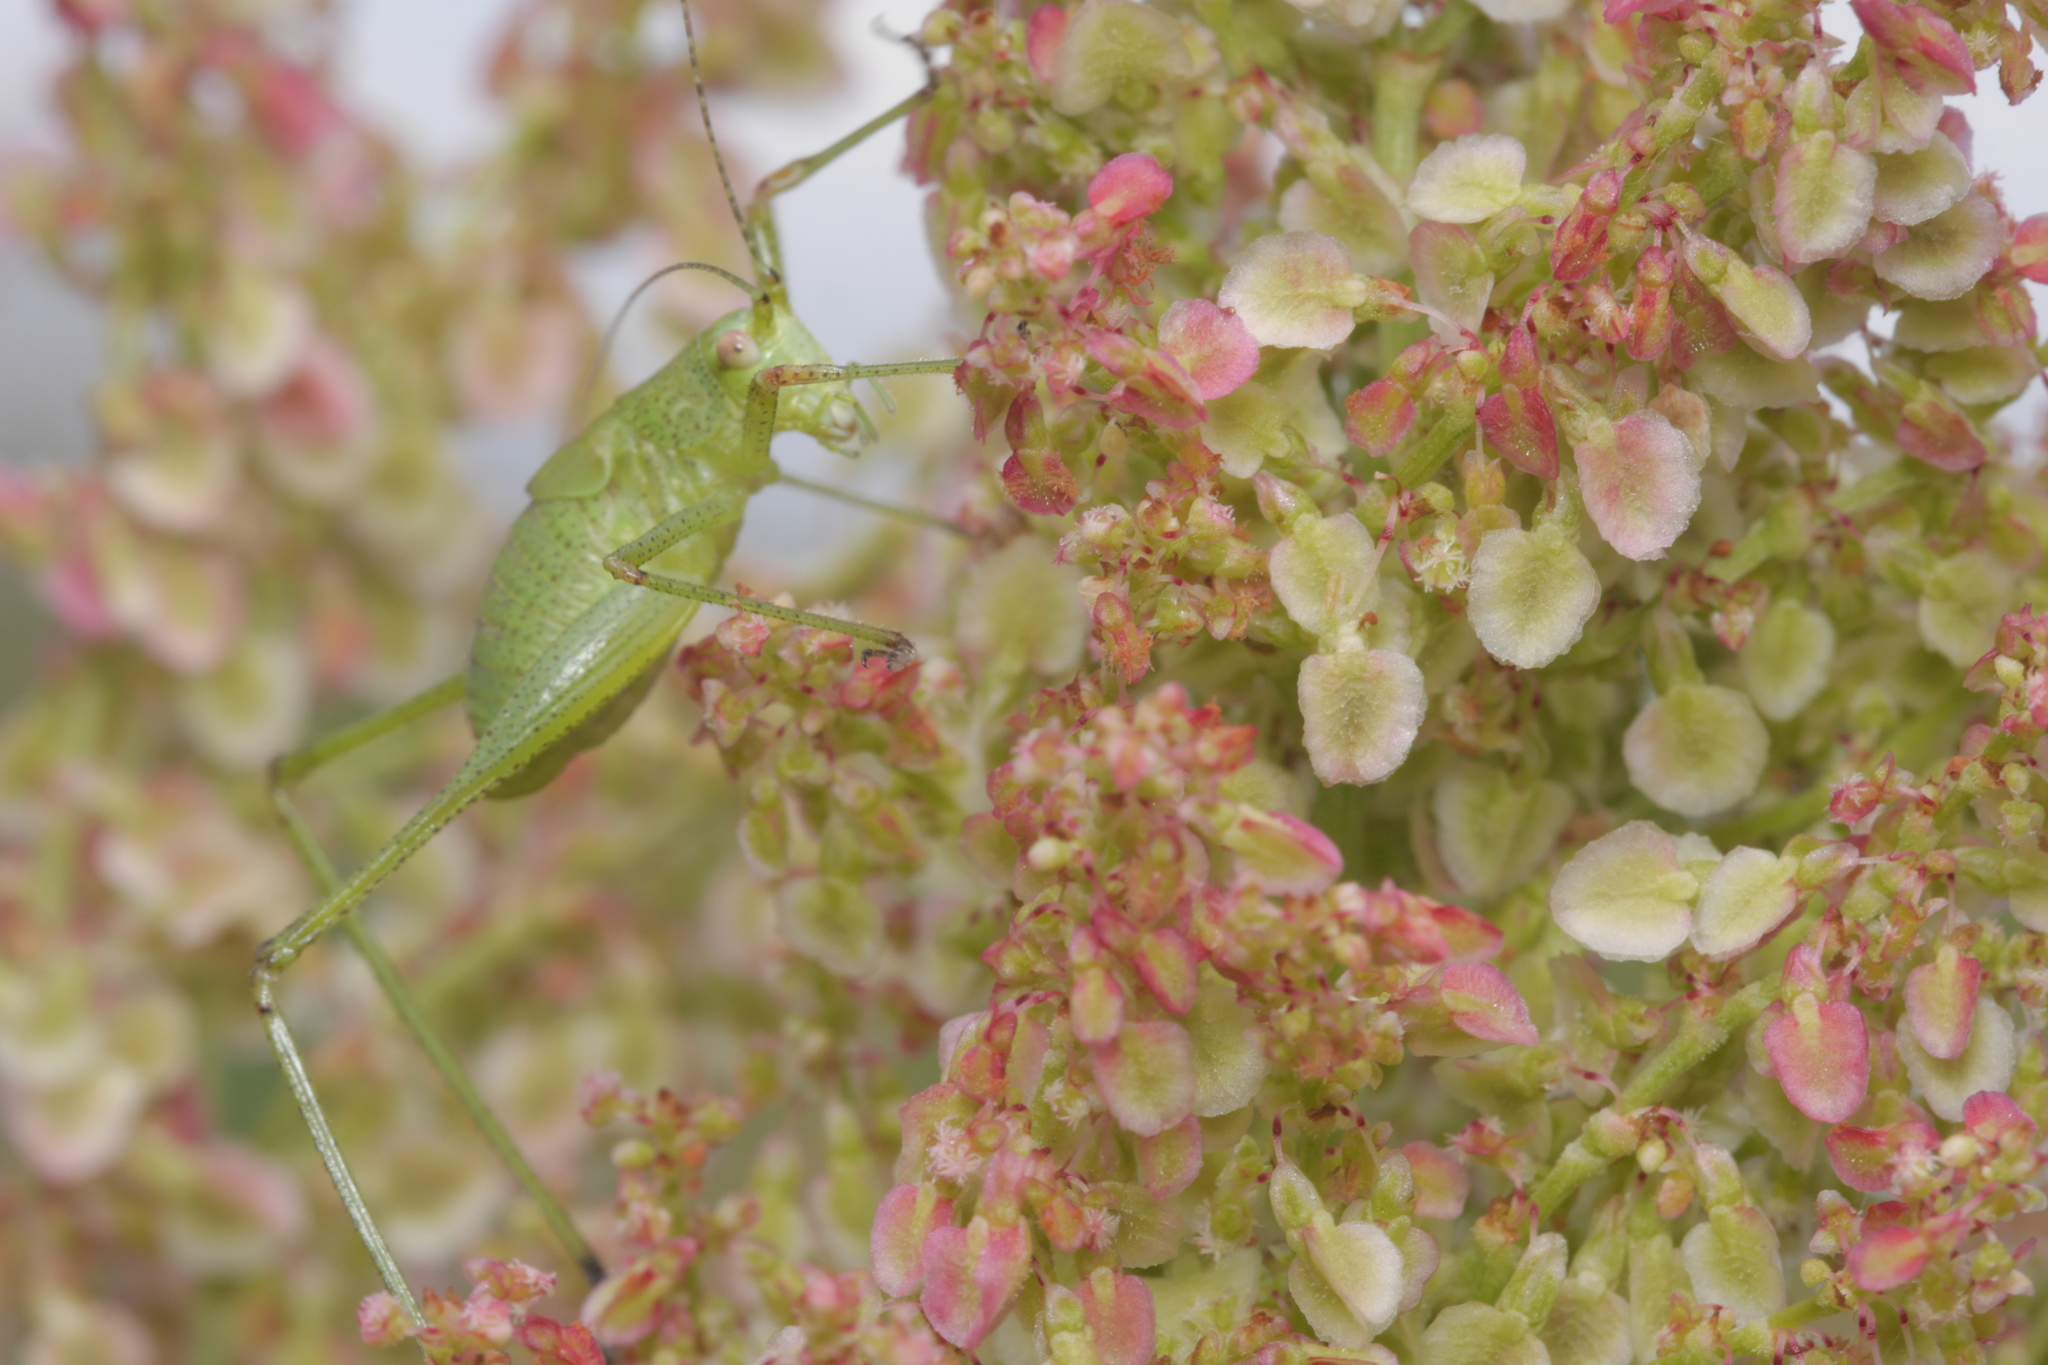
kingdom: Animalia
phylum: Arthropoda
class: Insecta
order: Orthoptera
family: Tettigoniidae
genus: Phaneroptera
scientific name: Phaneroptera falcata
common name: Sickle-bearing bush-cricket
